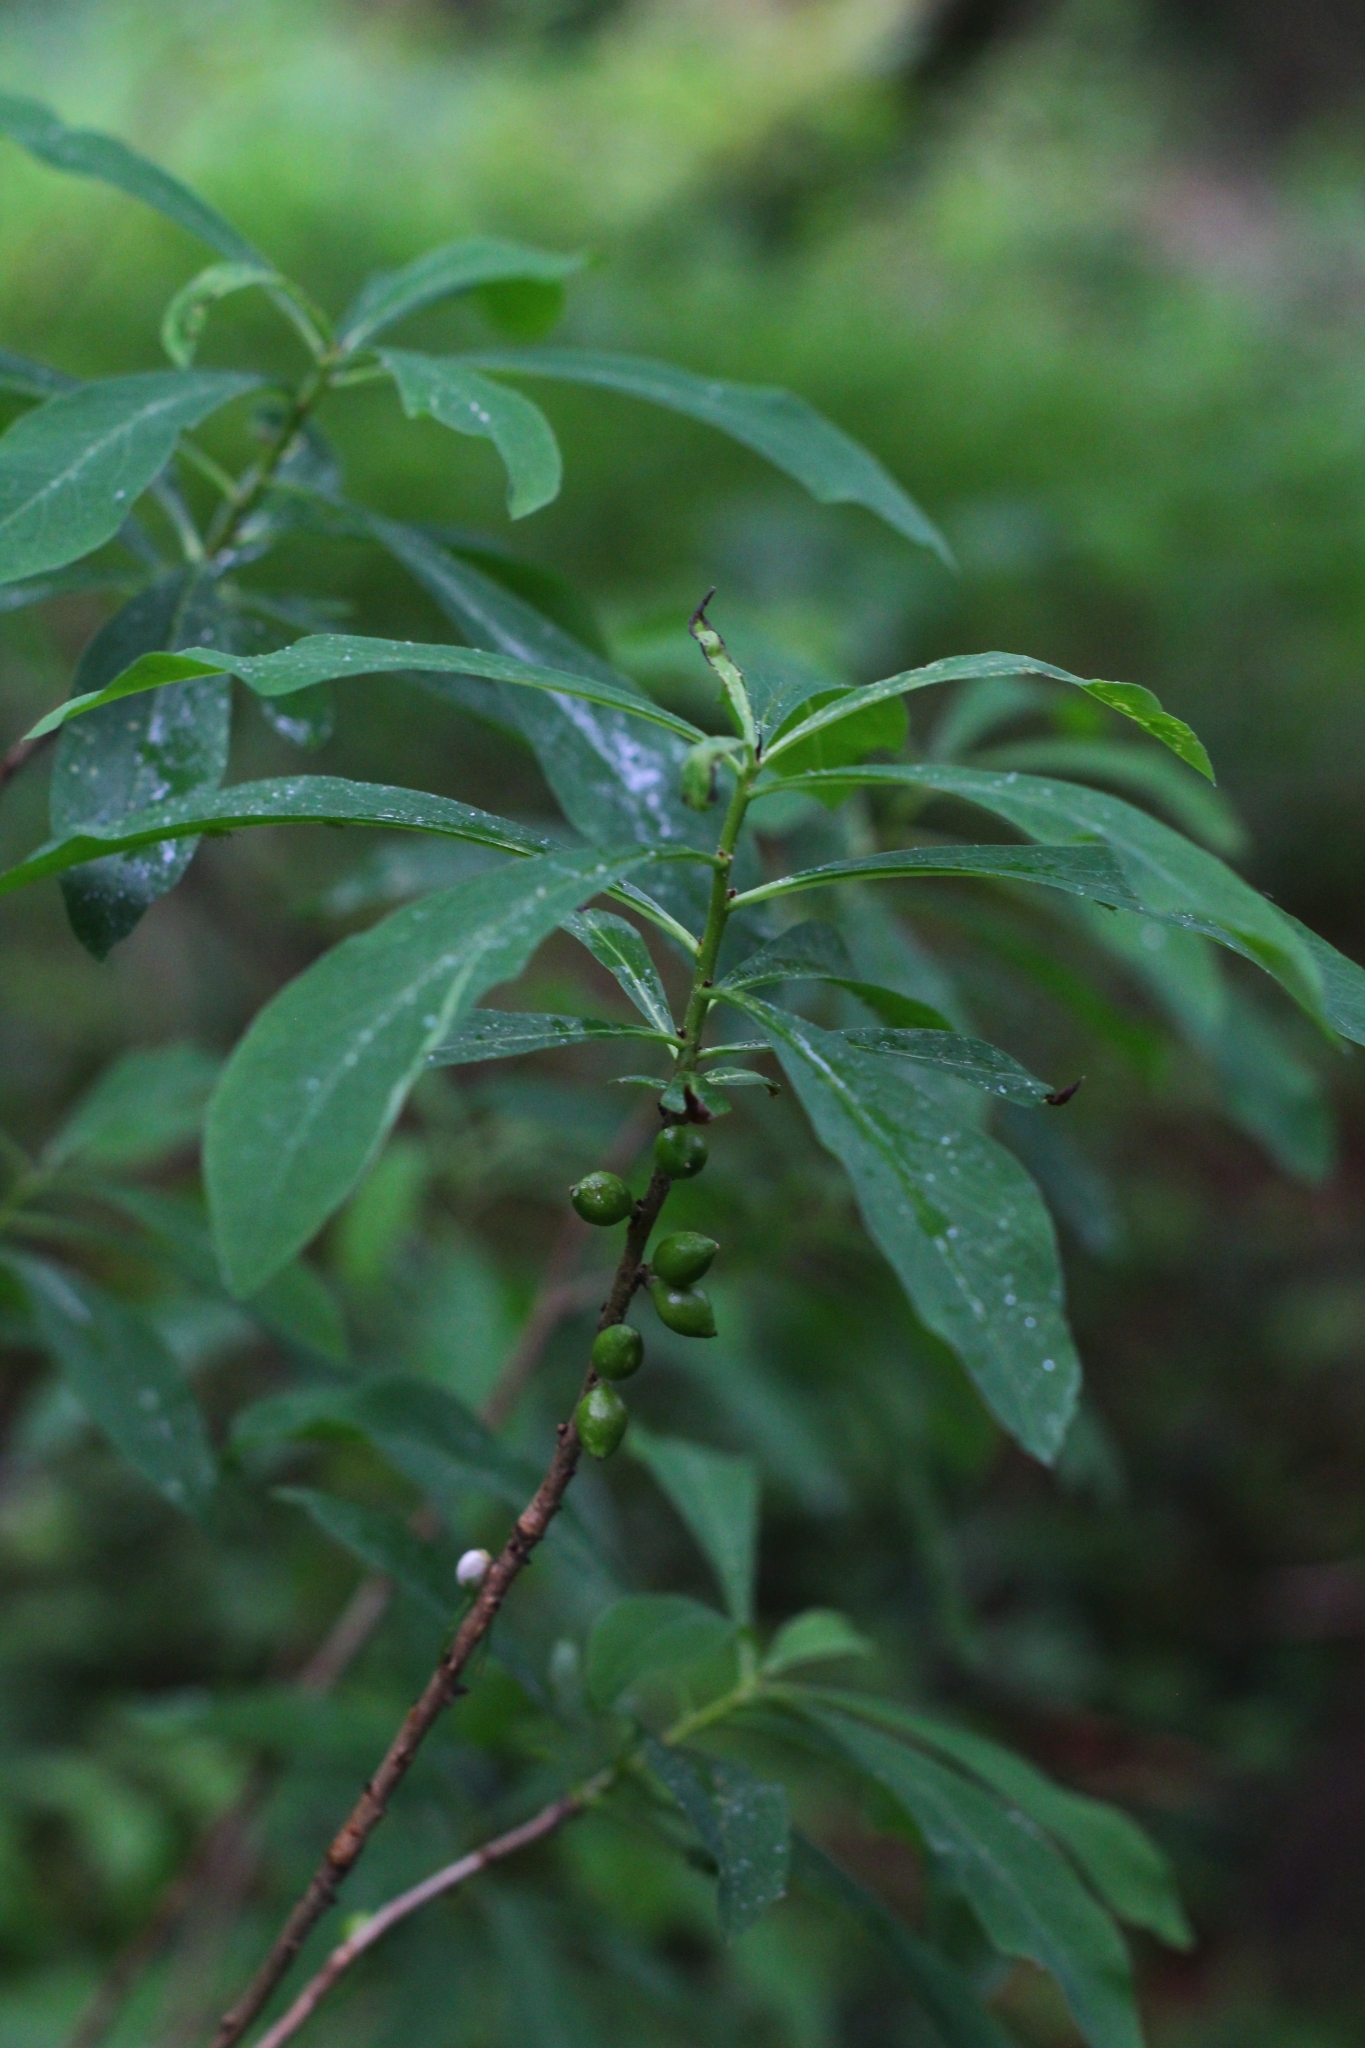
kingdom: Plantae
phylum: Tracheophyta
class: Magnoliopsida
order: Malvales
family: Thymelaeaceae
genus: Daphne
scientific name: Daphne mezereum
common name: Mezereon
